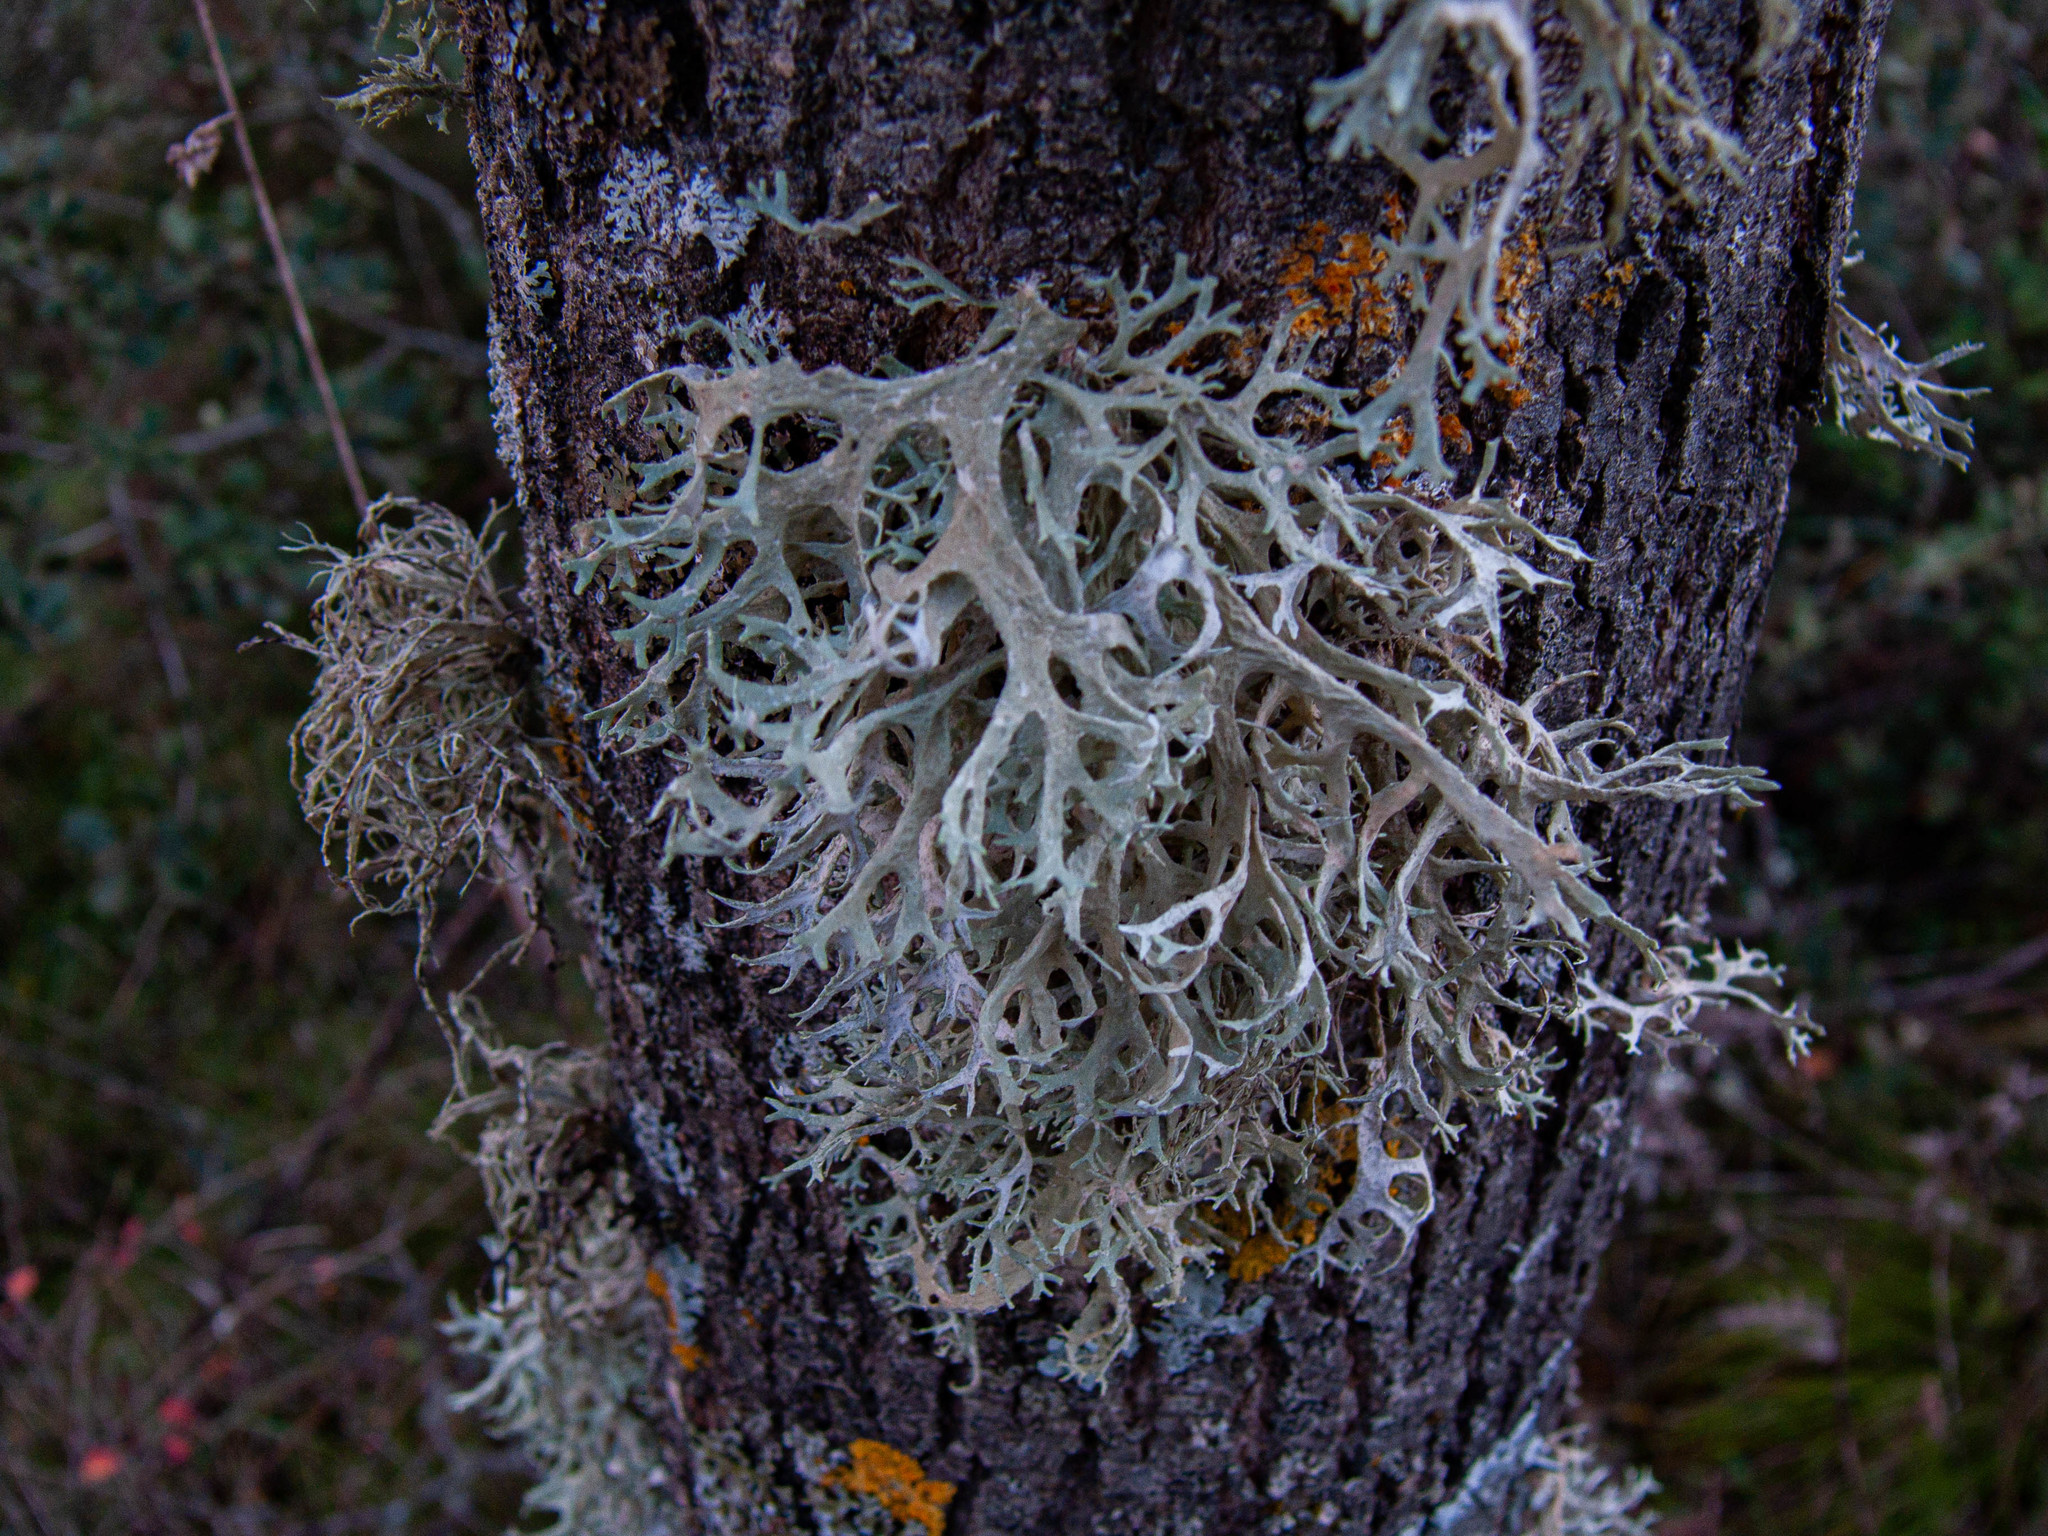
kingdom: Fungi
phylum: Ascomycota
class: Lecanoromycetes
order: Lecanorales
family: Parmeliaceae
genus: Evernia
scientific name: Evernia prunastri
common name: Oak moss
